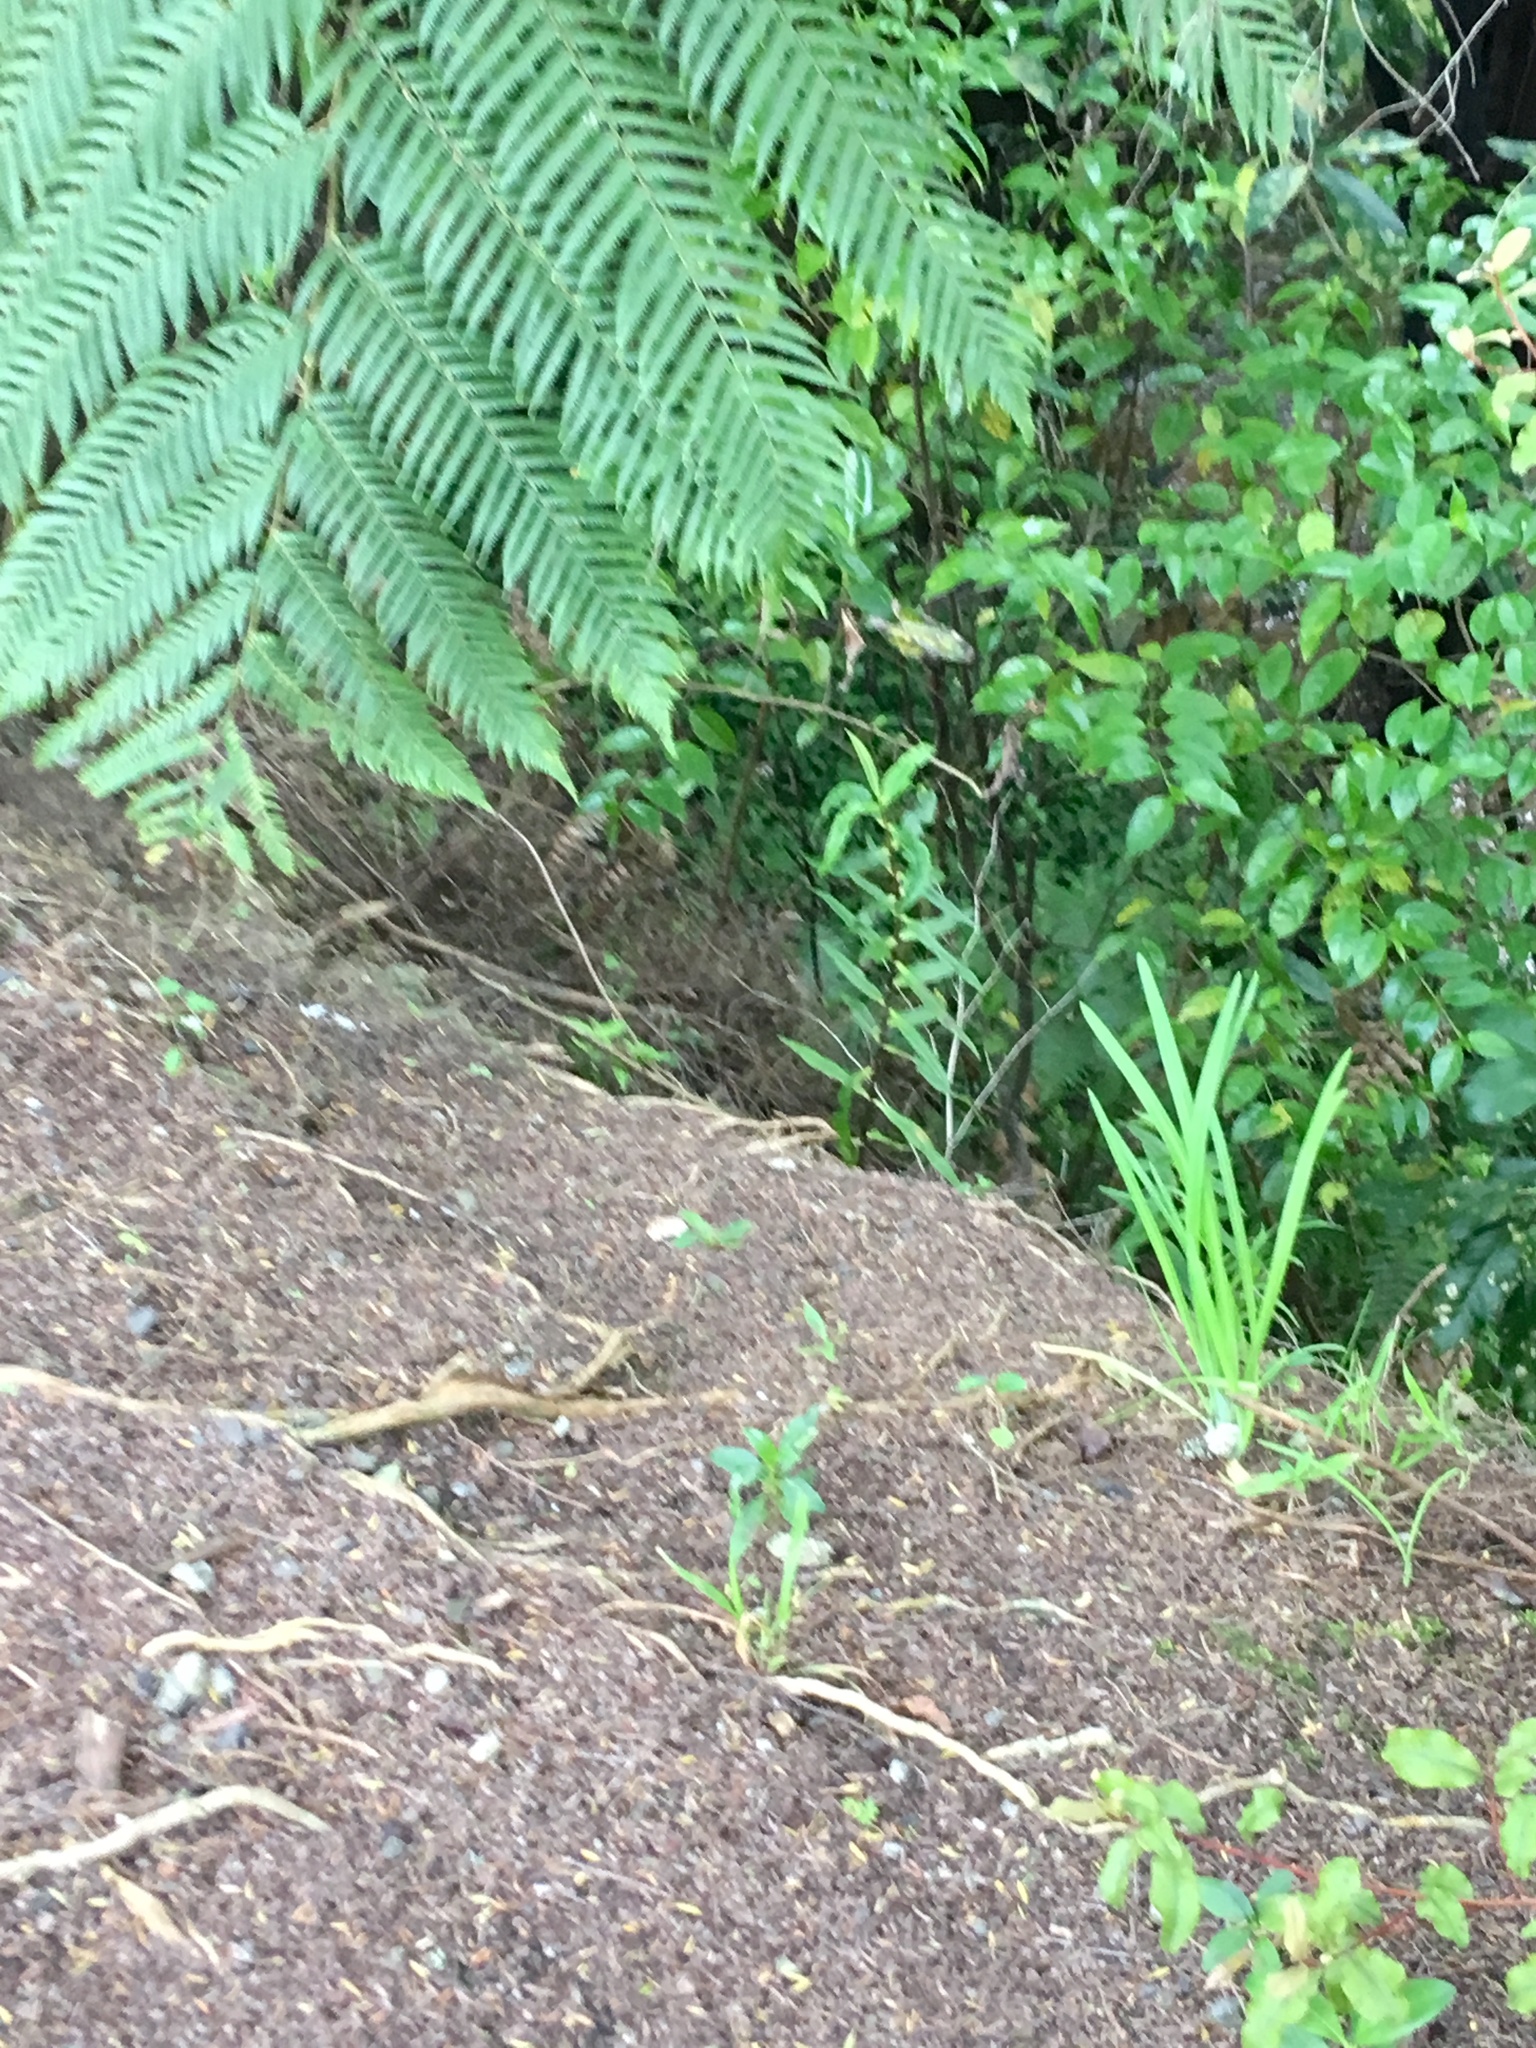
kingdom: Plantae
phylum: Tracheophyta
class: Magnoliopsida
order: Gentianales
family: Loganiaceae
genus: Geniostoma
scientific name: Geniostoma ligustrifolium
